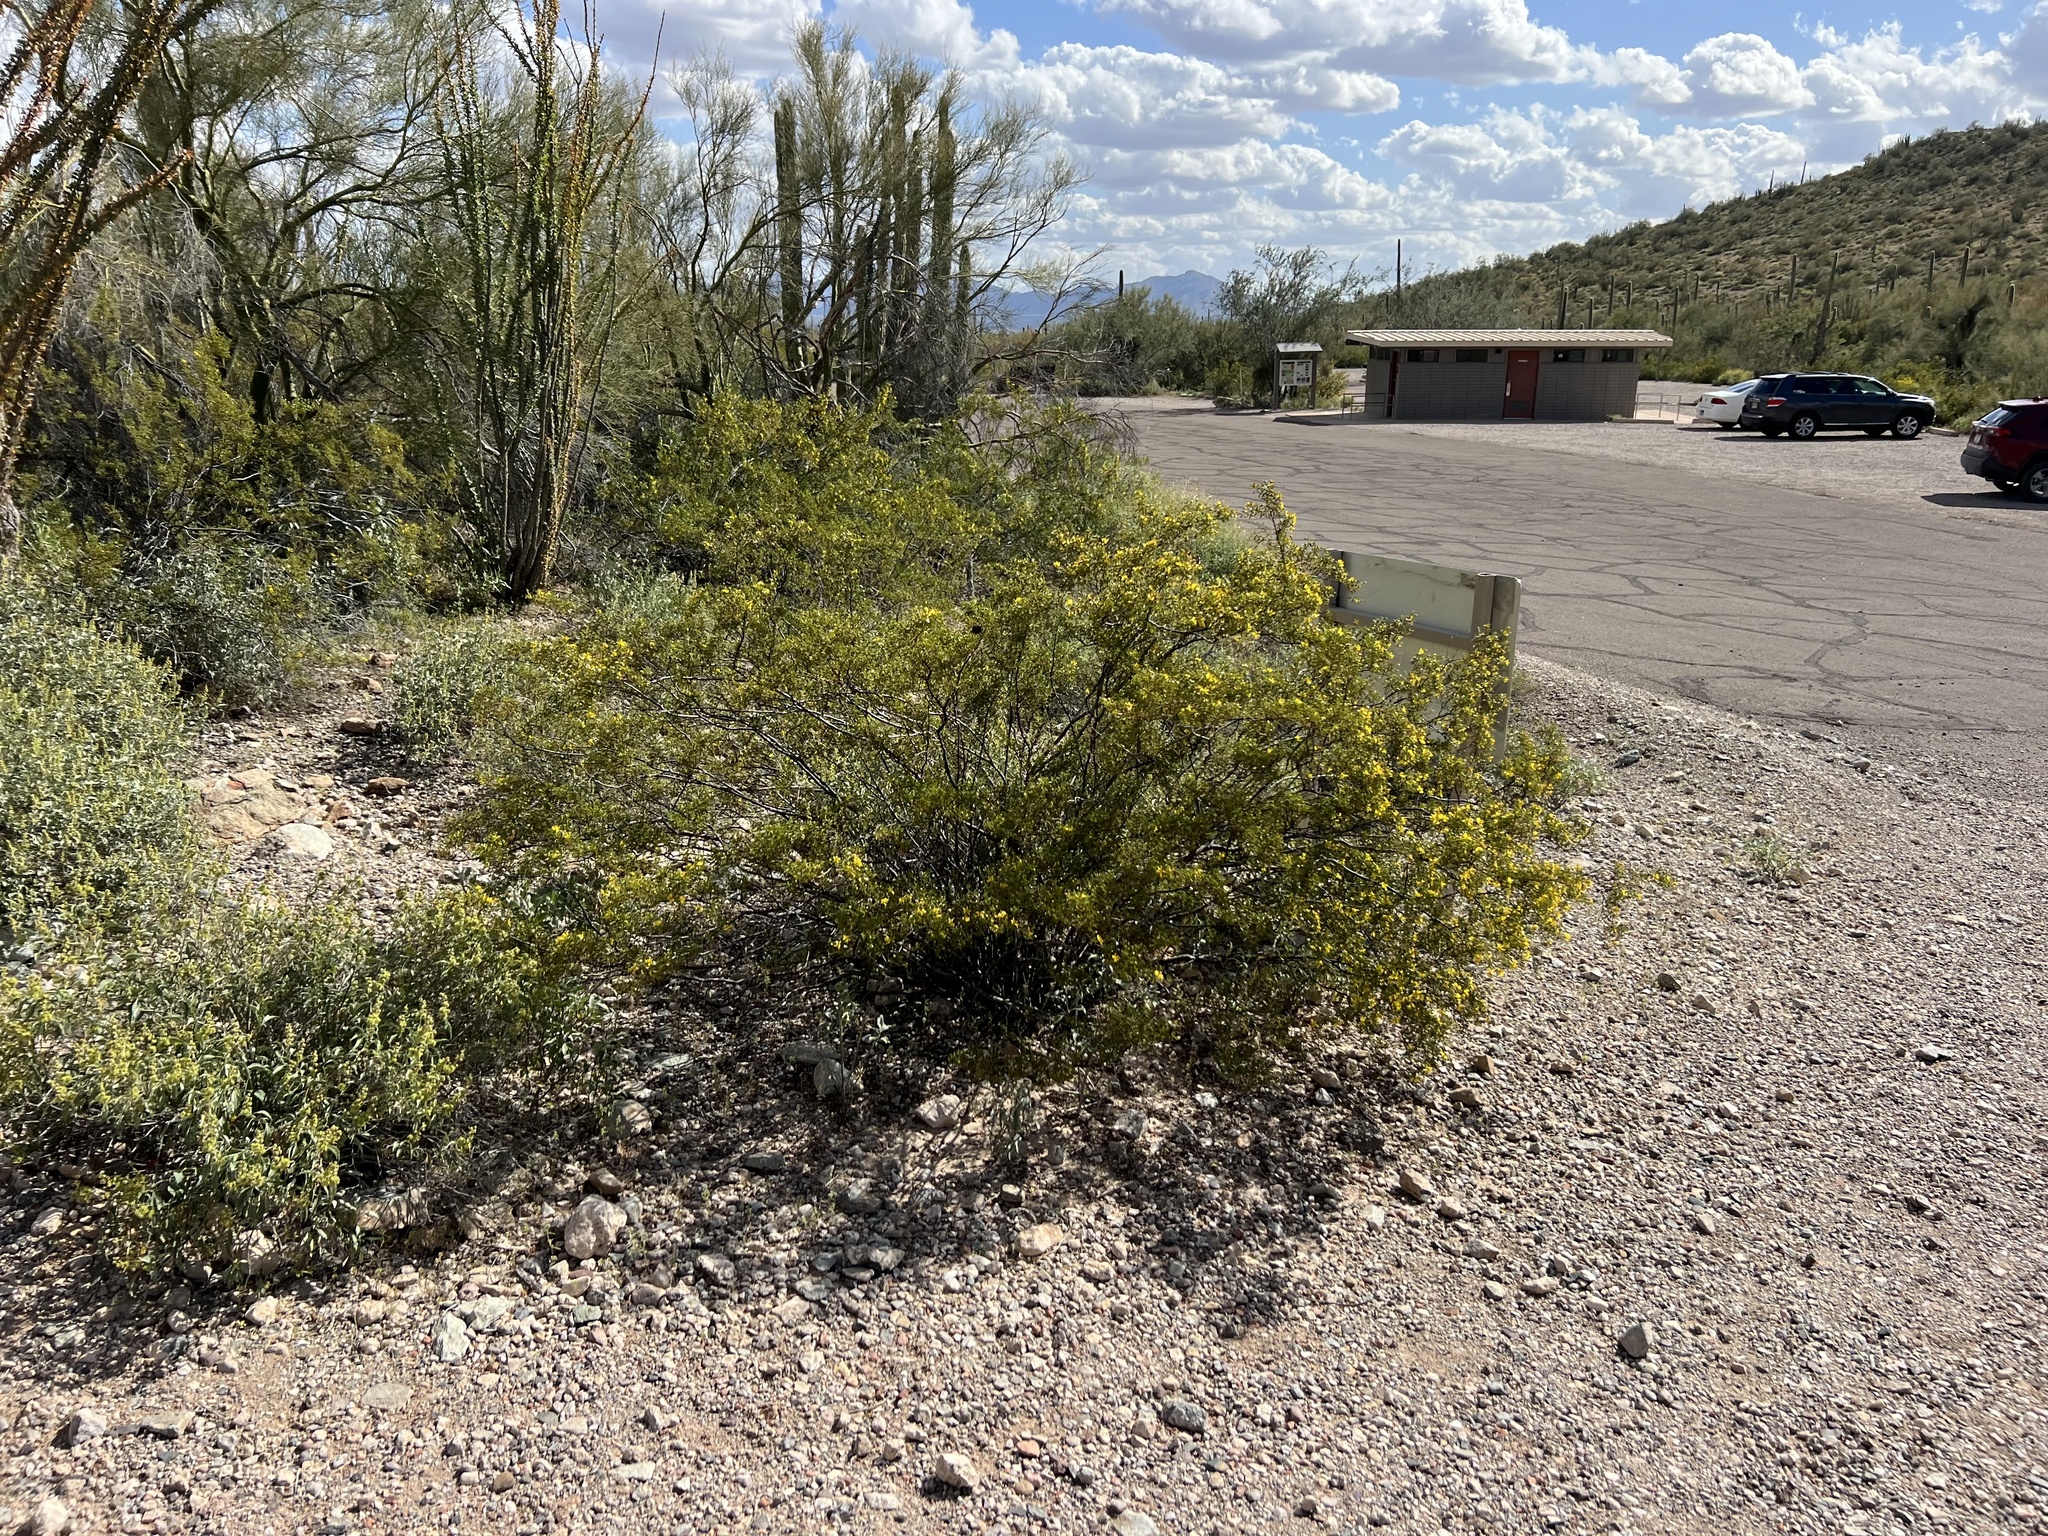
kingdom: Plantae
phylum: Tracheophyta
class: Magnoliopsida
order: Zygophyllales
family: Zygophyllaceae
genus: Larrea
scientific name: Larrea tridentata
